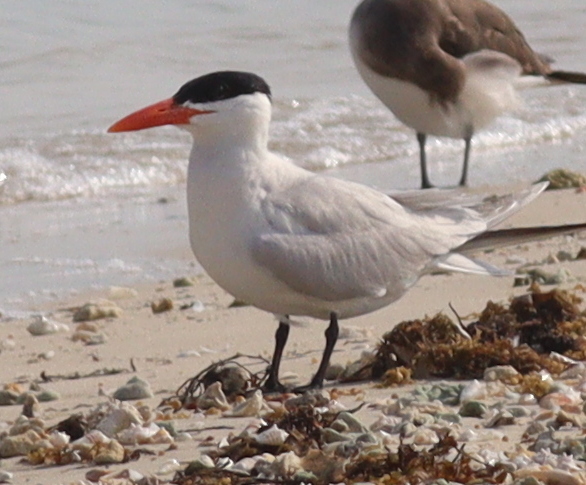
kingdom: Animalia
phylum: Chordata
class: Aves
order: Charadriiformes
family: Laridae
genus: Hydroprogne
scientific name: Hydroprogne caspia
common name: Caspian tern
